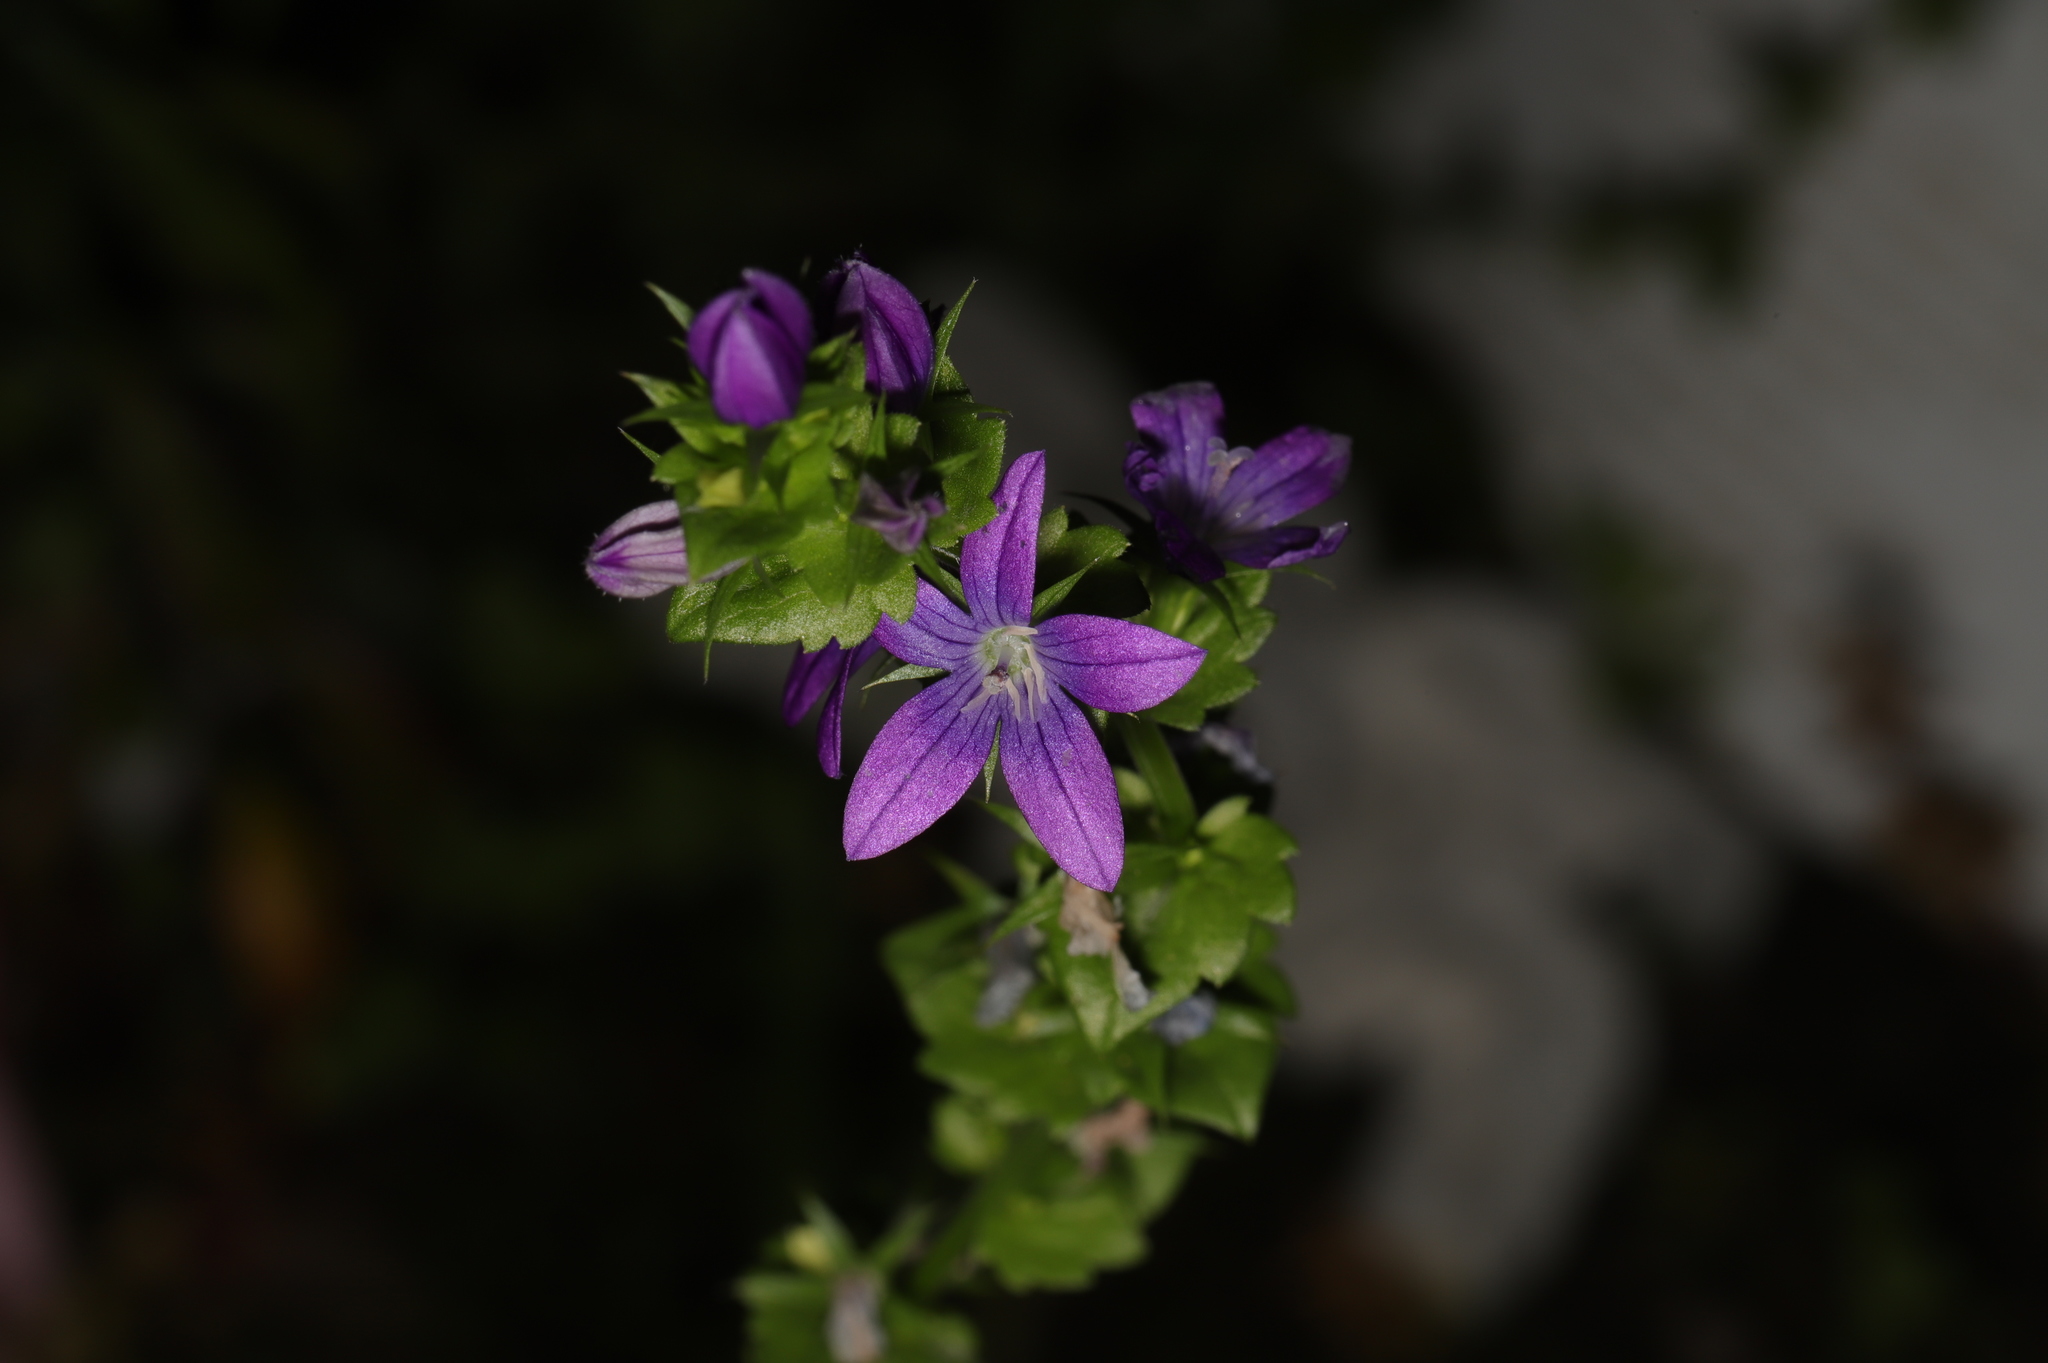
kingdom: Plantae
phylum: Tracheophyta
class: Magnoliopsida
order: Asterales
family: Campanulaceae
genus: Triodanis
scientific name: Triodanis perfoliata
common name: Clasping venus' looking-glass
